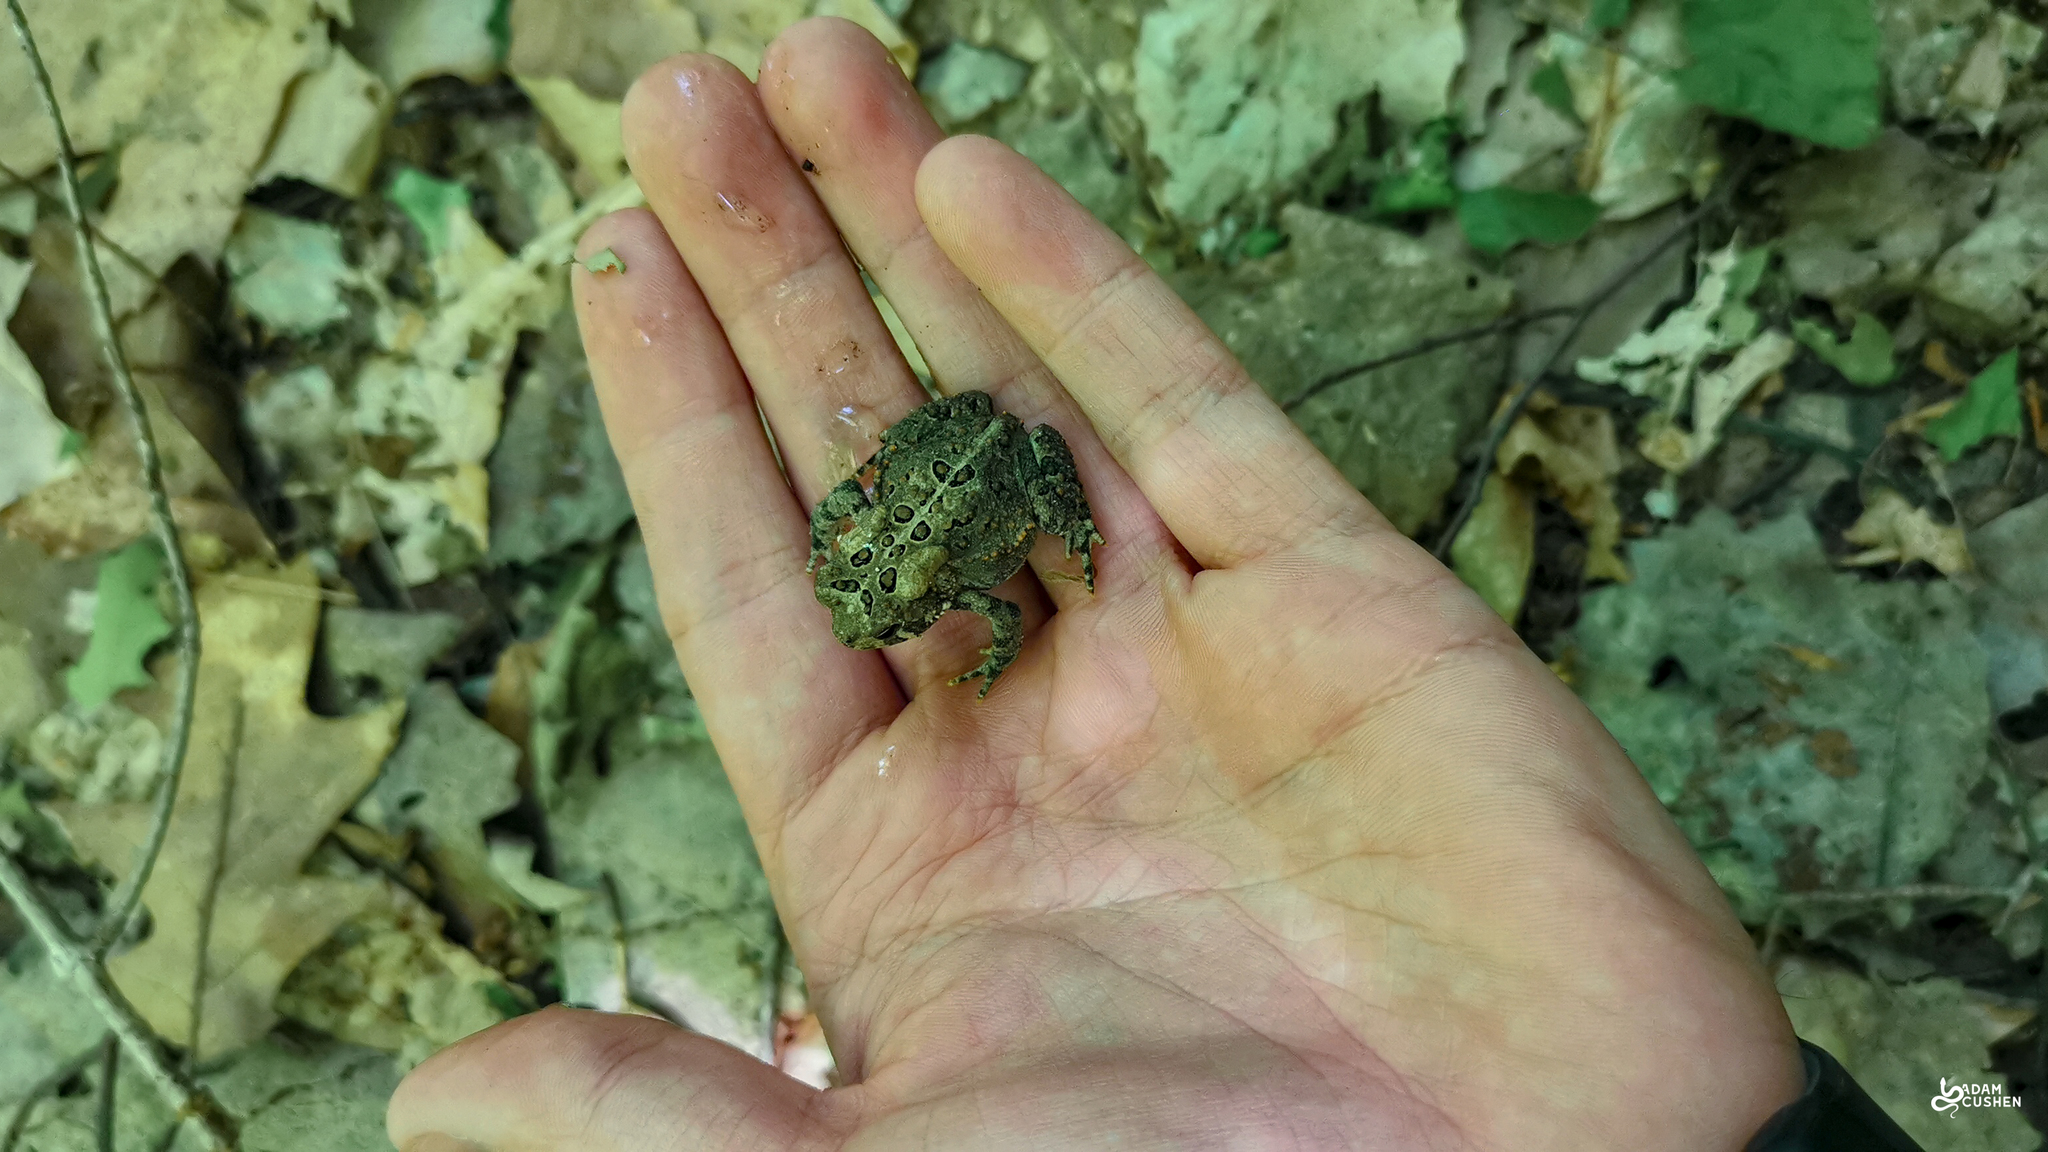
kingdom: Animalia
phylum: Chordata
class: Amphibia
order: Anura
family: Bufonidae
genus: Anaxyrus
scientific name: Anaxyrus americanus
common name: American toad
